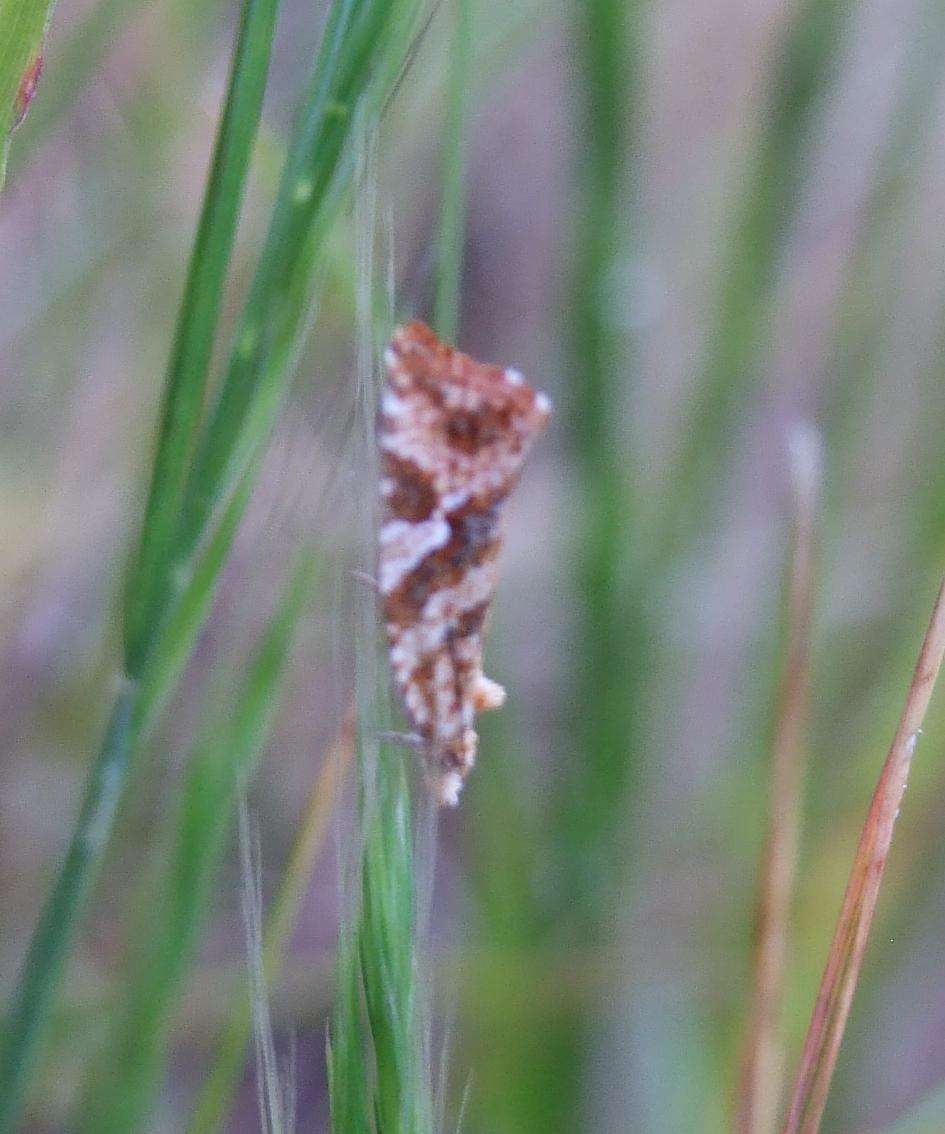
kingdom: Animalia
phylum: Arthropoda
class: Insecta
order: Lepidoptera
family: Tortricidae
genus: Epitymbia
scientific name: Epitymbia isoscelana
